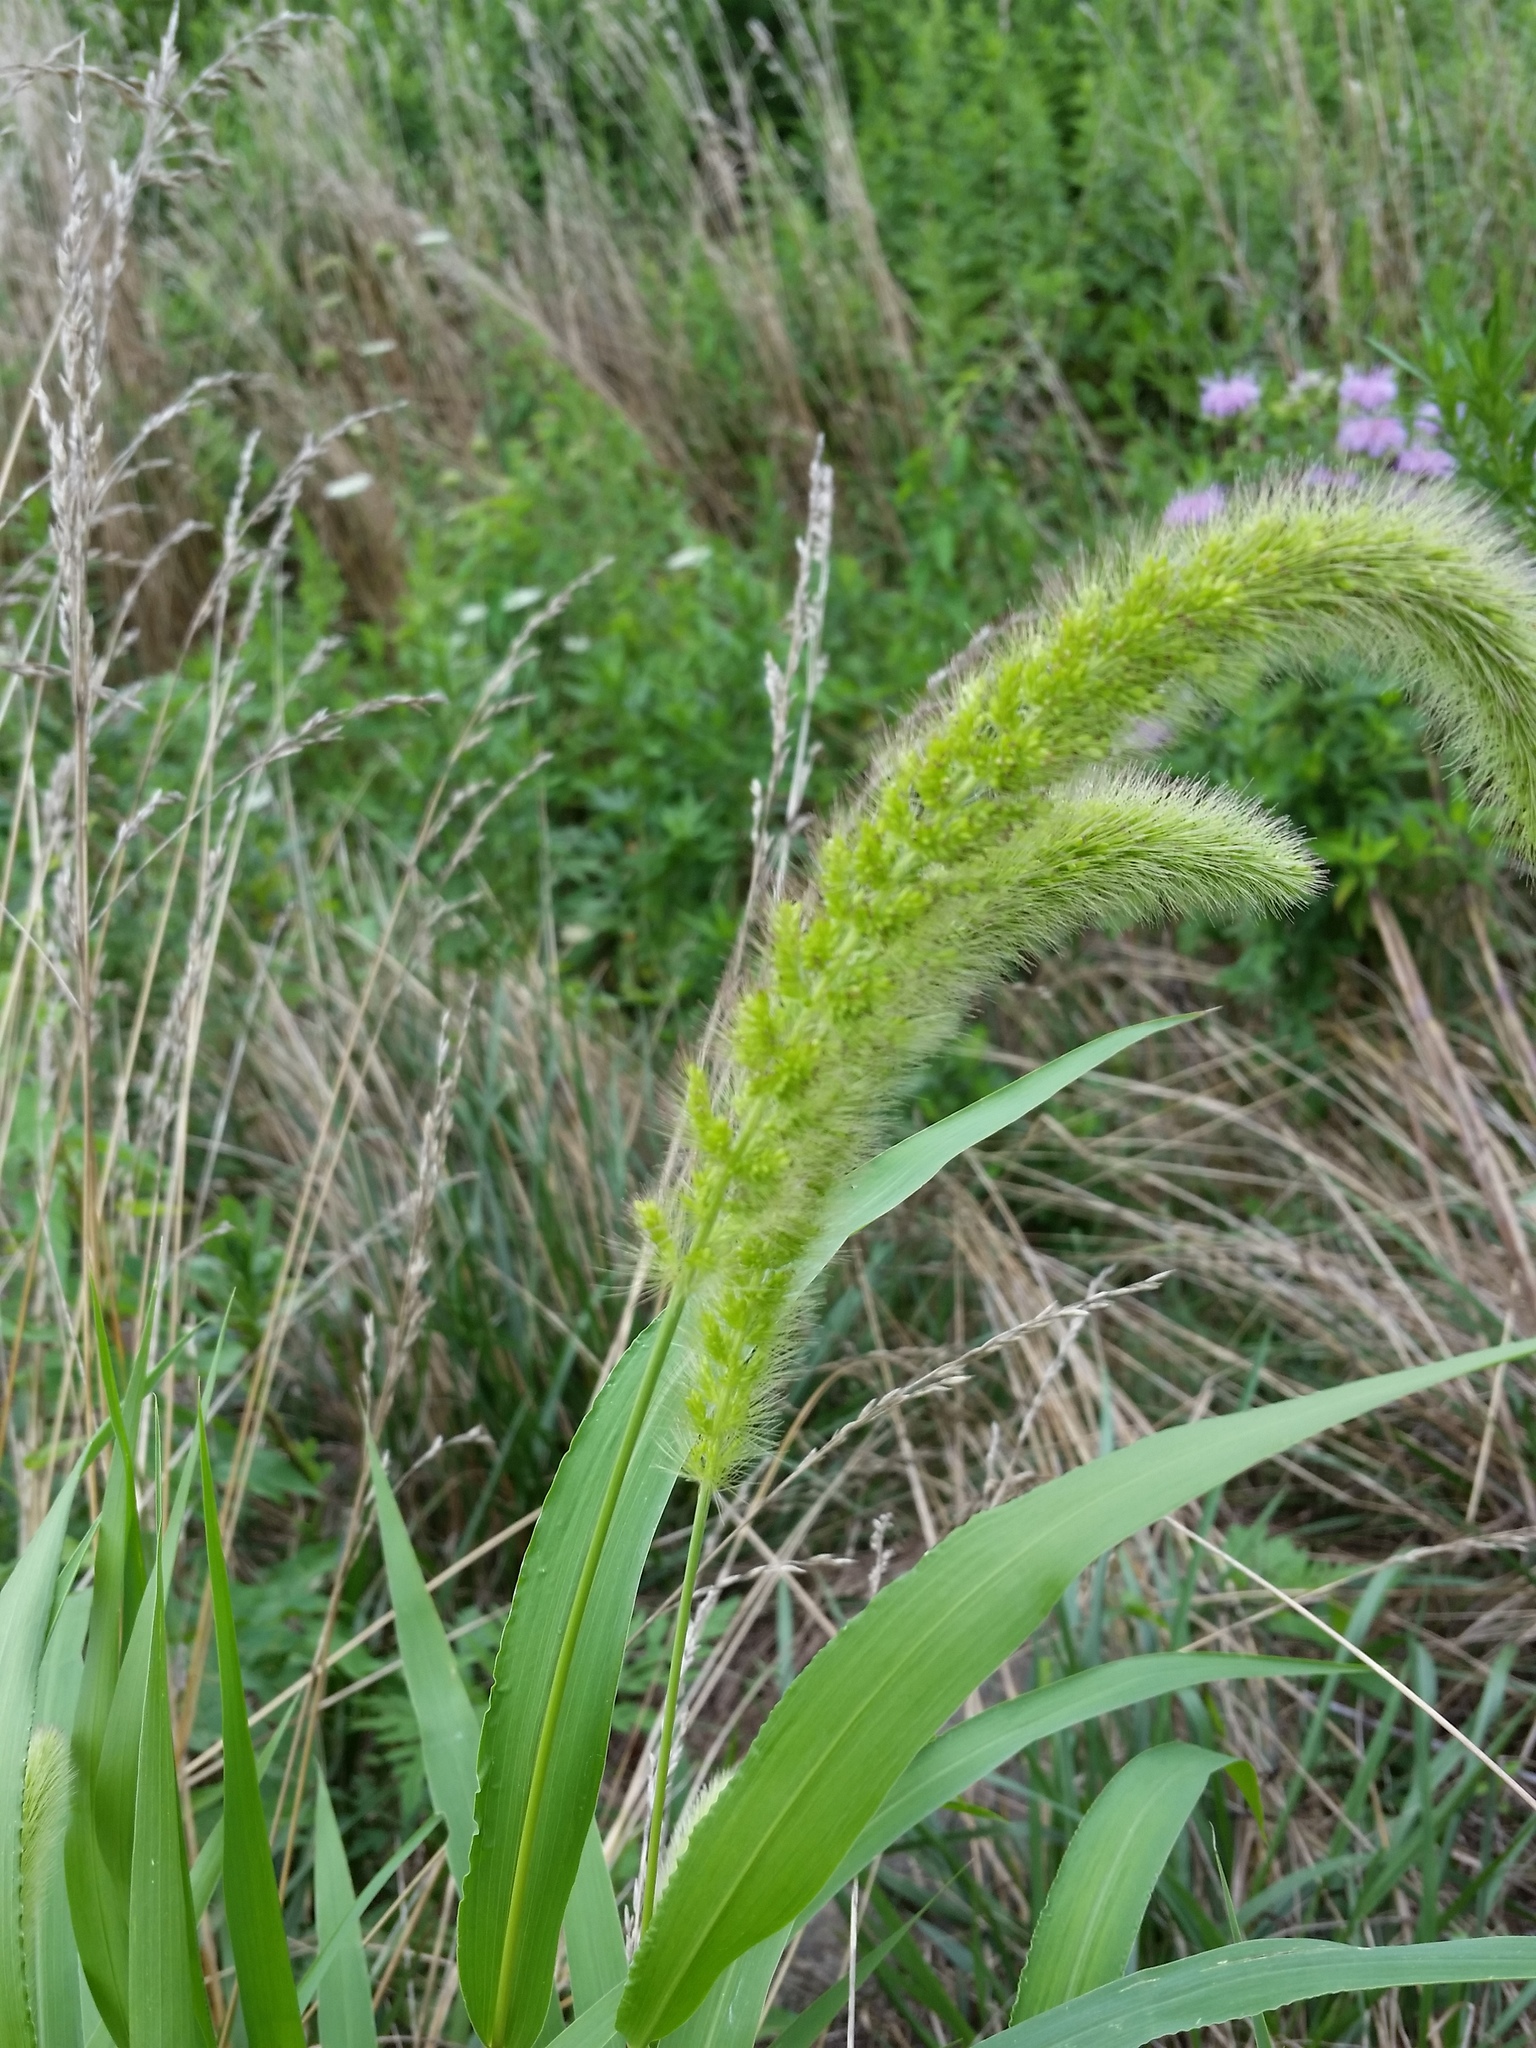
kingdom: Plantae
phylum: Tracheophyta
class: Liliopsida
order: Poales
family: Poaceae
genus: Setaria
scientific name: Setaria viridis
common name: Green bristlegrass
